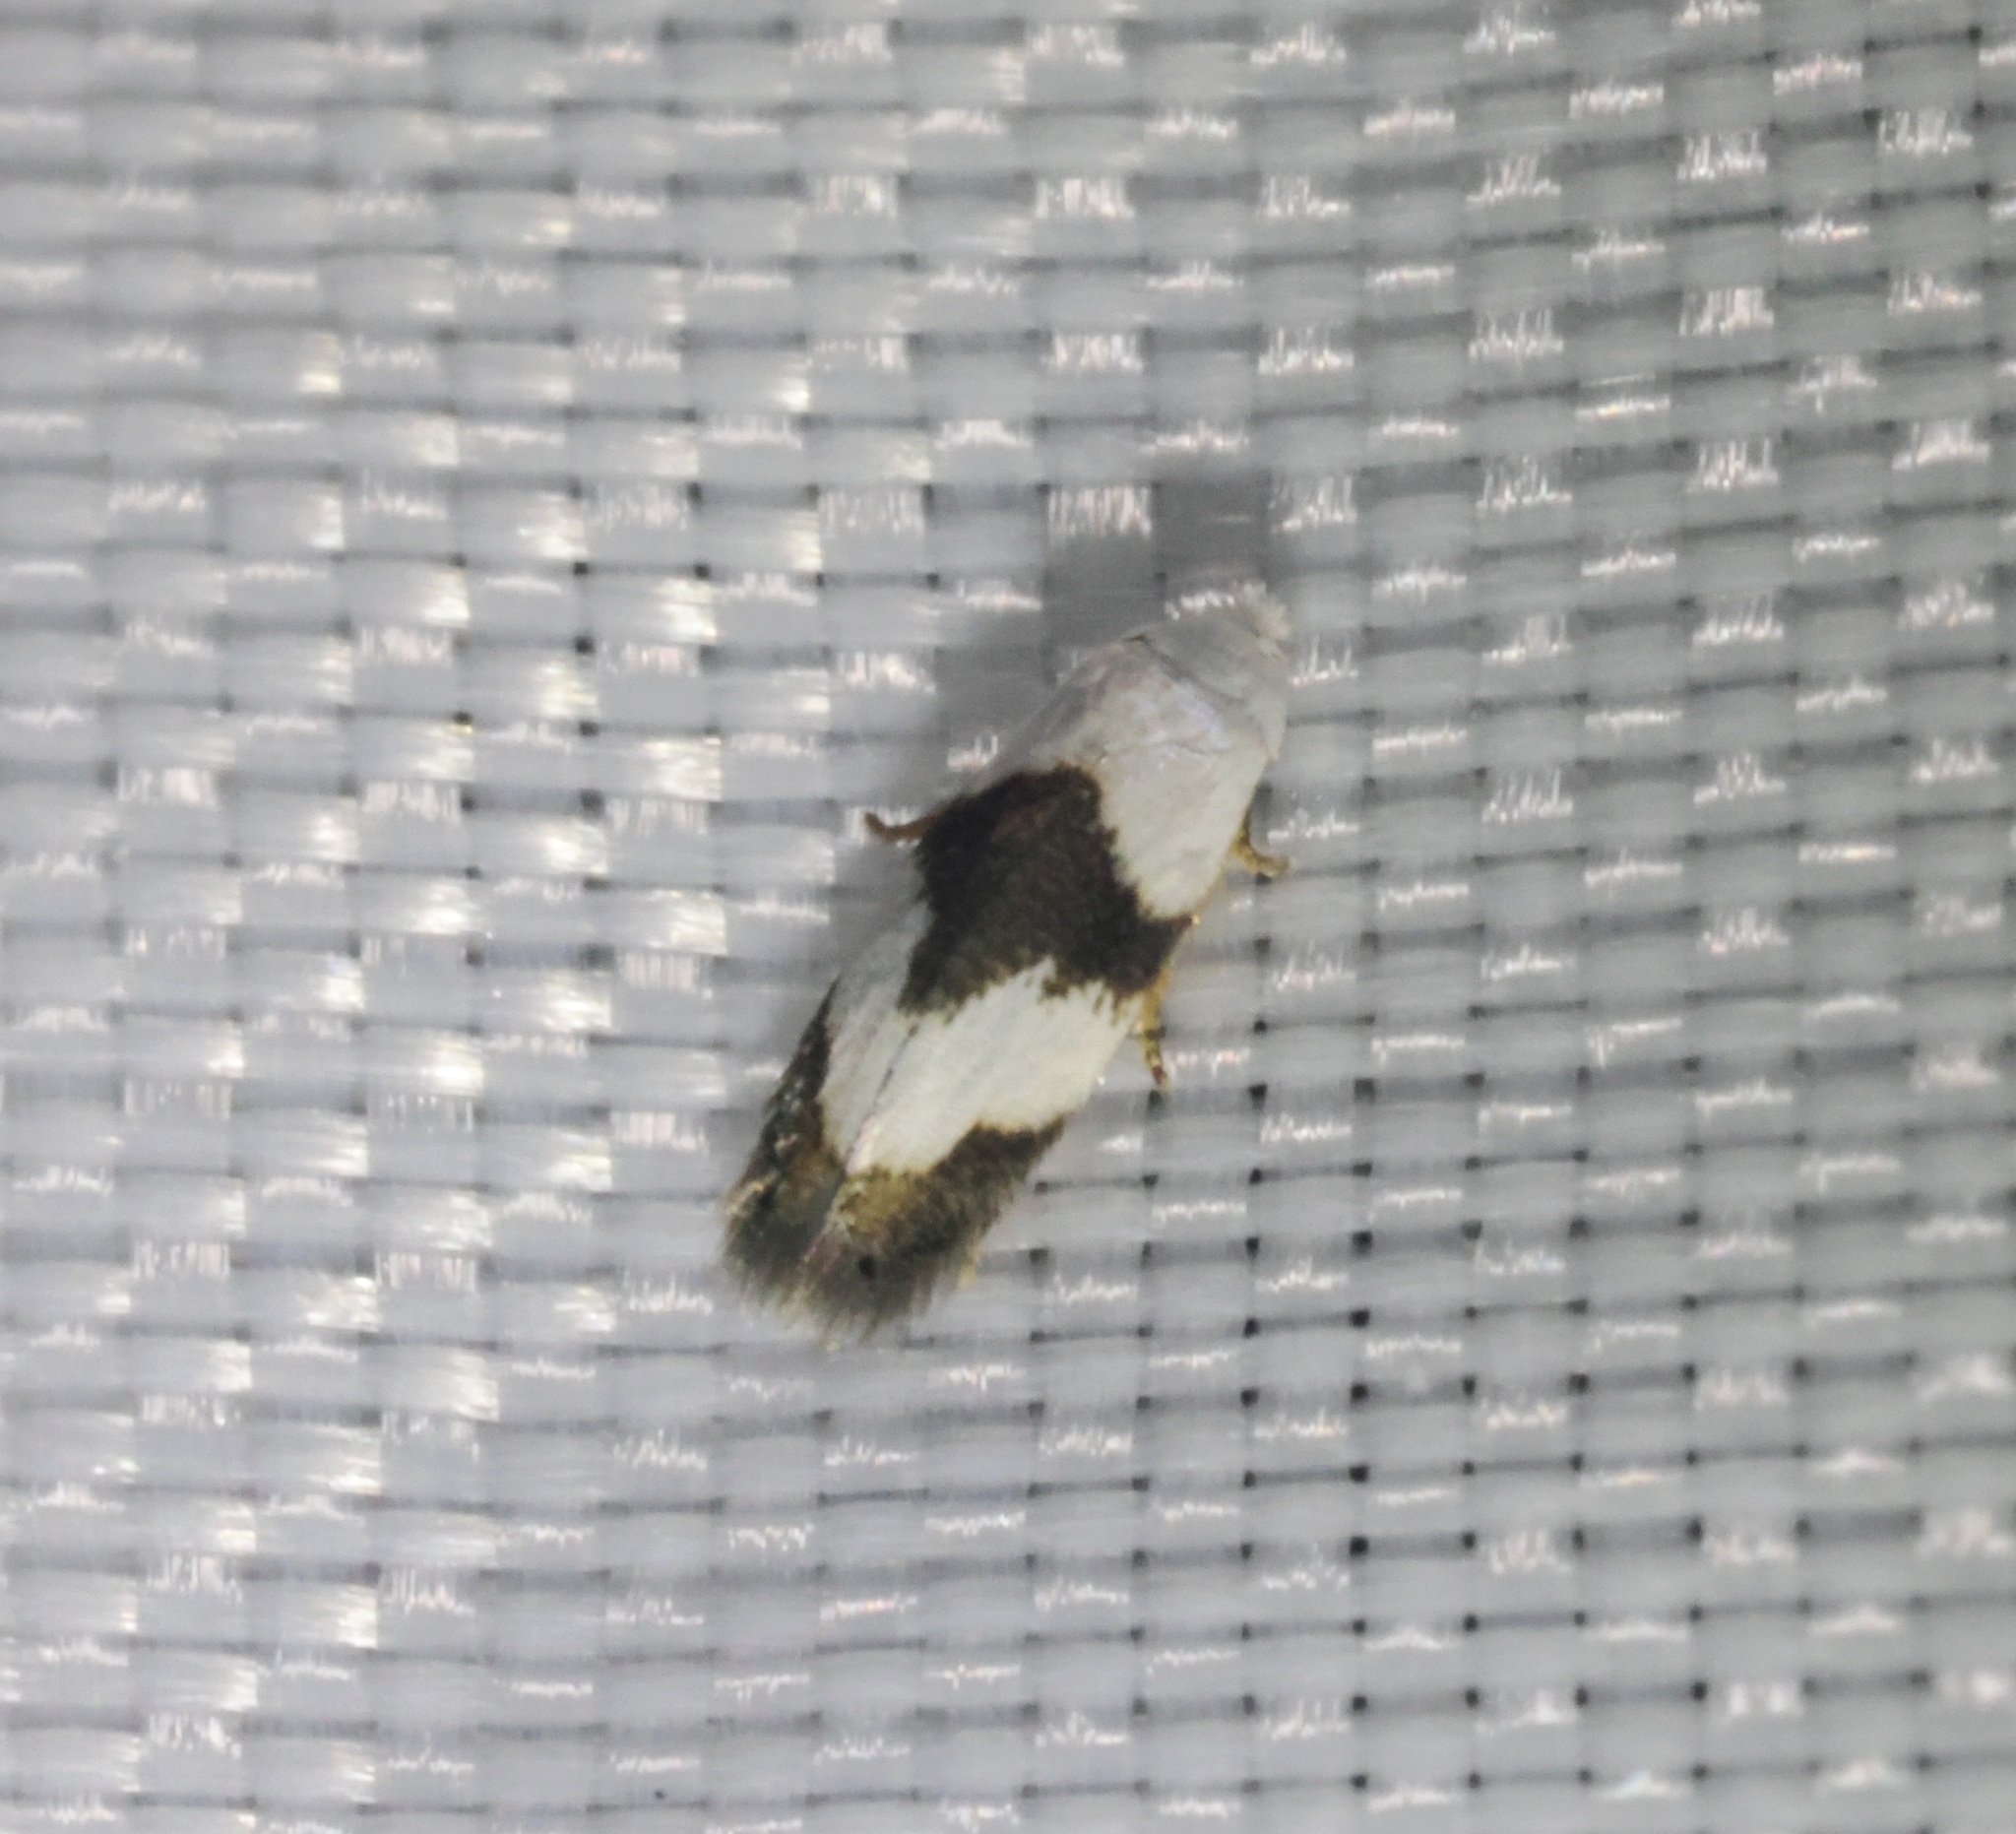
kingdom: Animalia
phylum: Arthropoda
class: Insecta
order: Lepidoptera
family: Opostegidae
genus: Pseudopostega
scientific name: Pseudopostega zelopa
